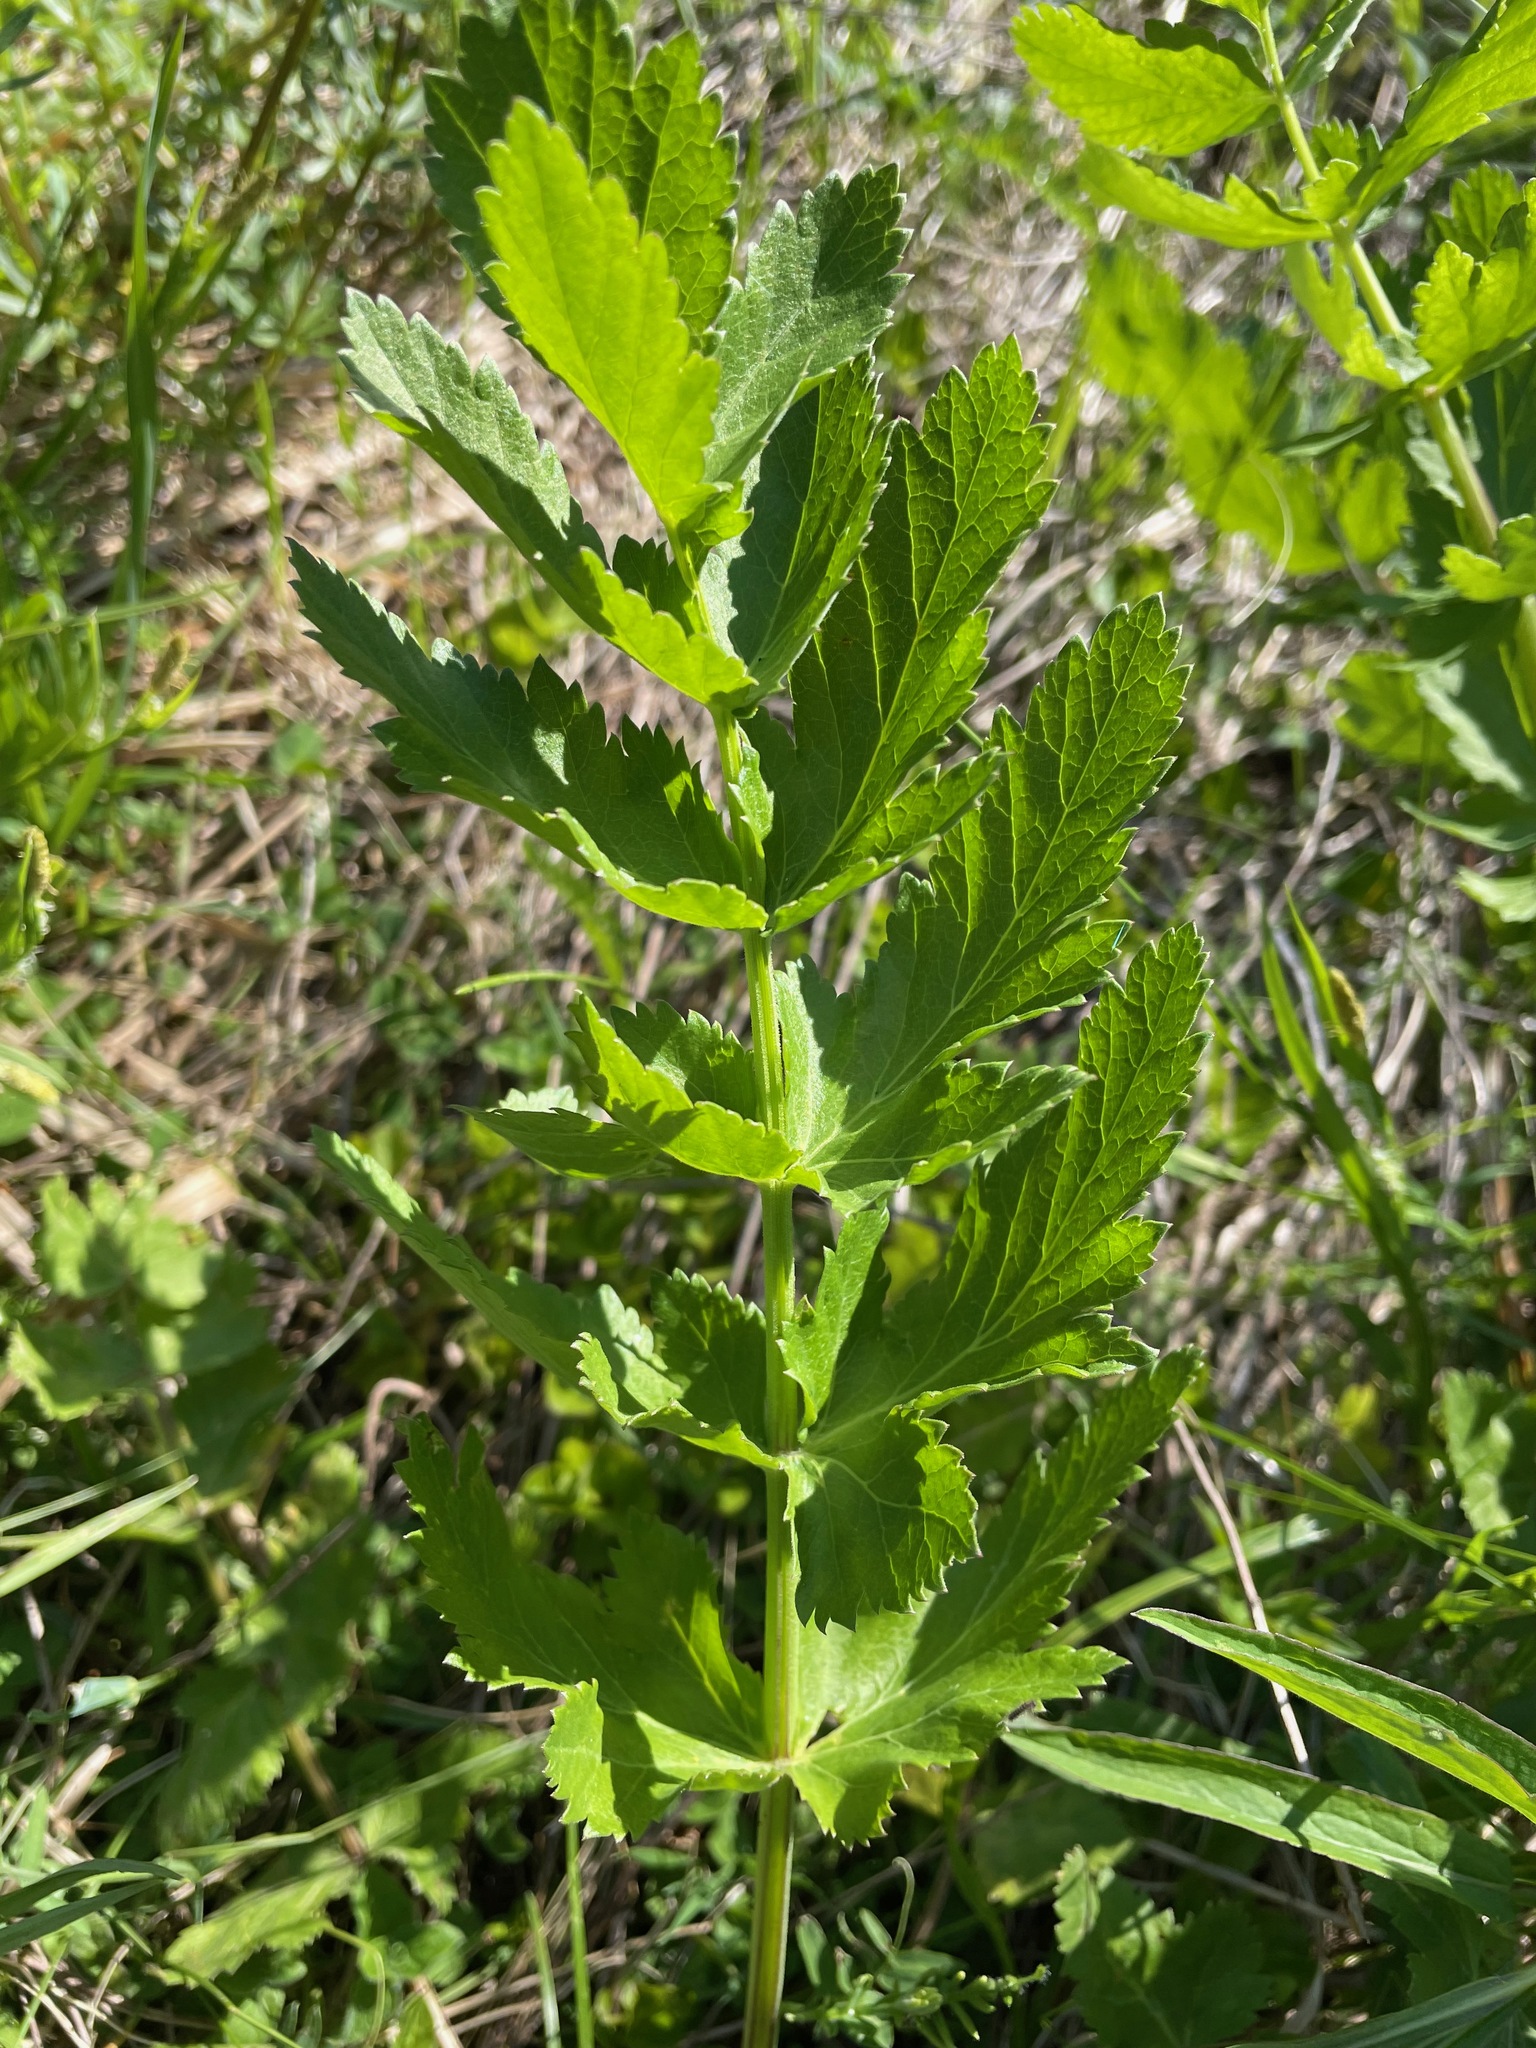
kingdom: Plantae
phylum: Tracheophyta
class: Magnoliopsida
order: Apiales
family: Apiaceae
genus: Pastinaca
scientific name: Pastinaca sativa
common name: Wild parsnip
